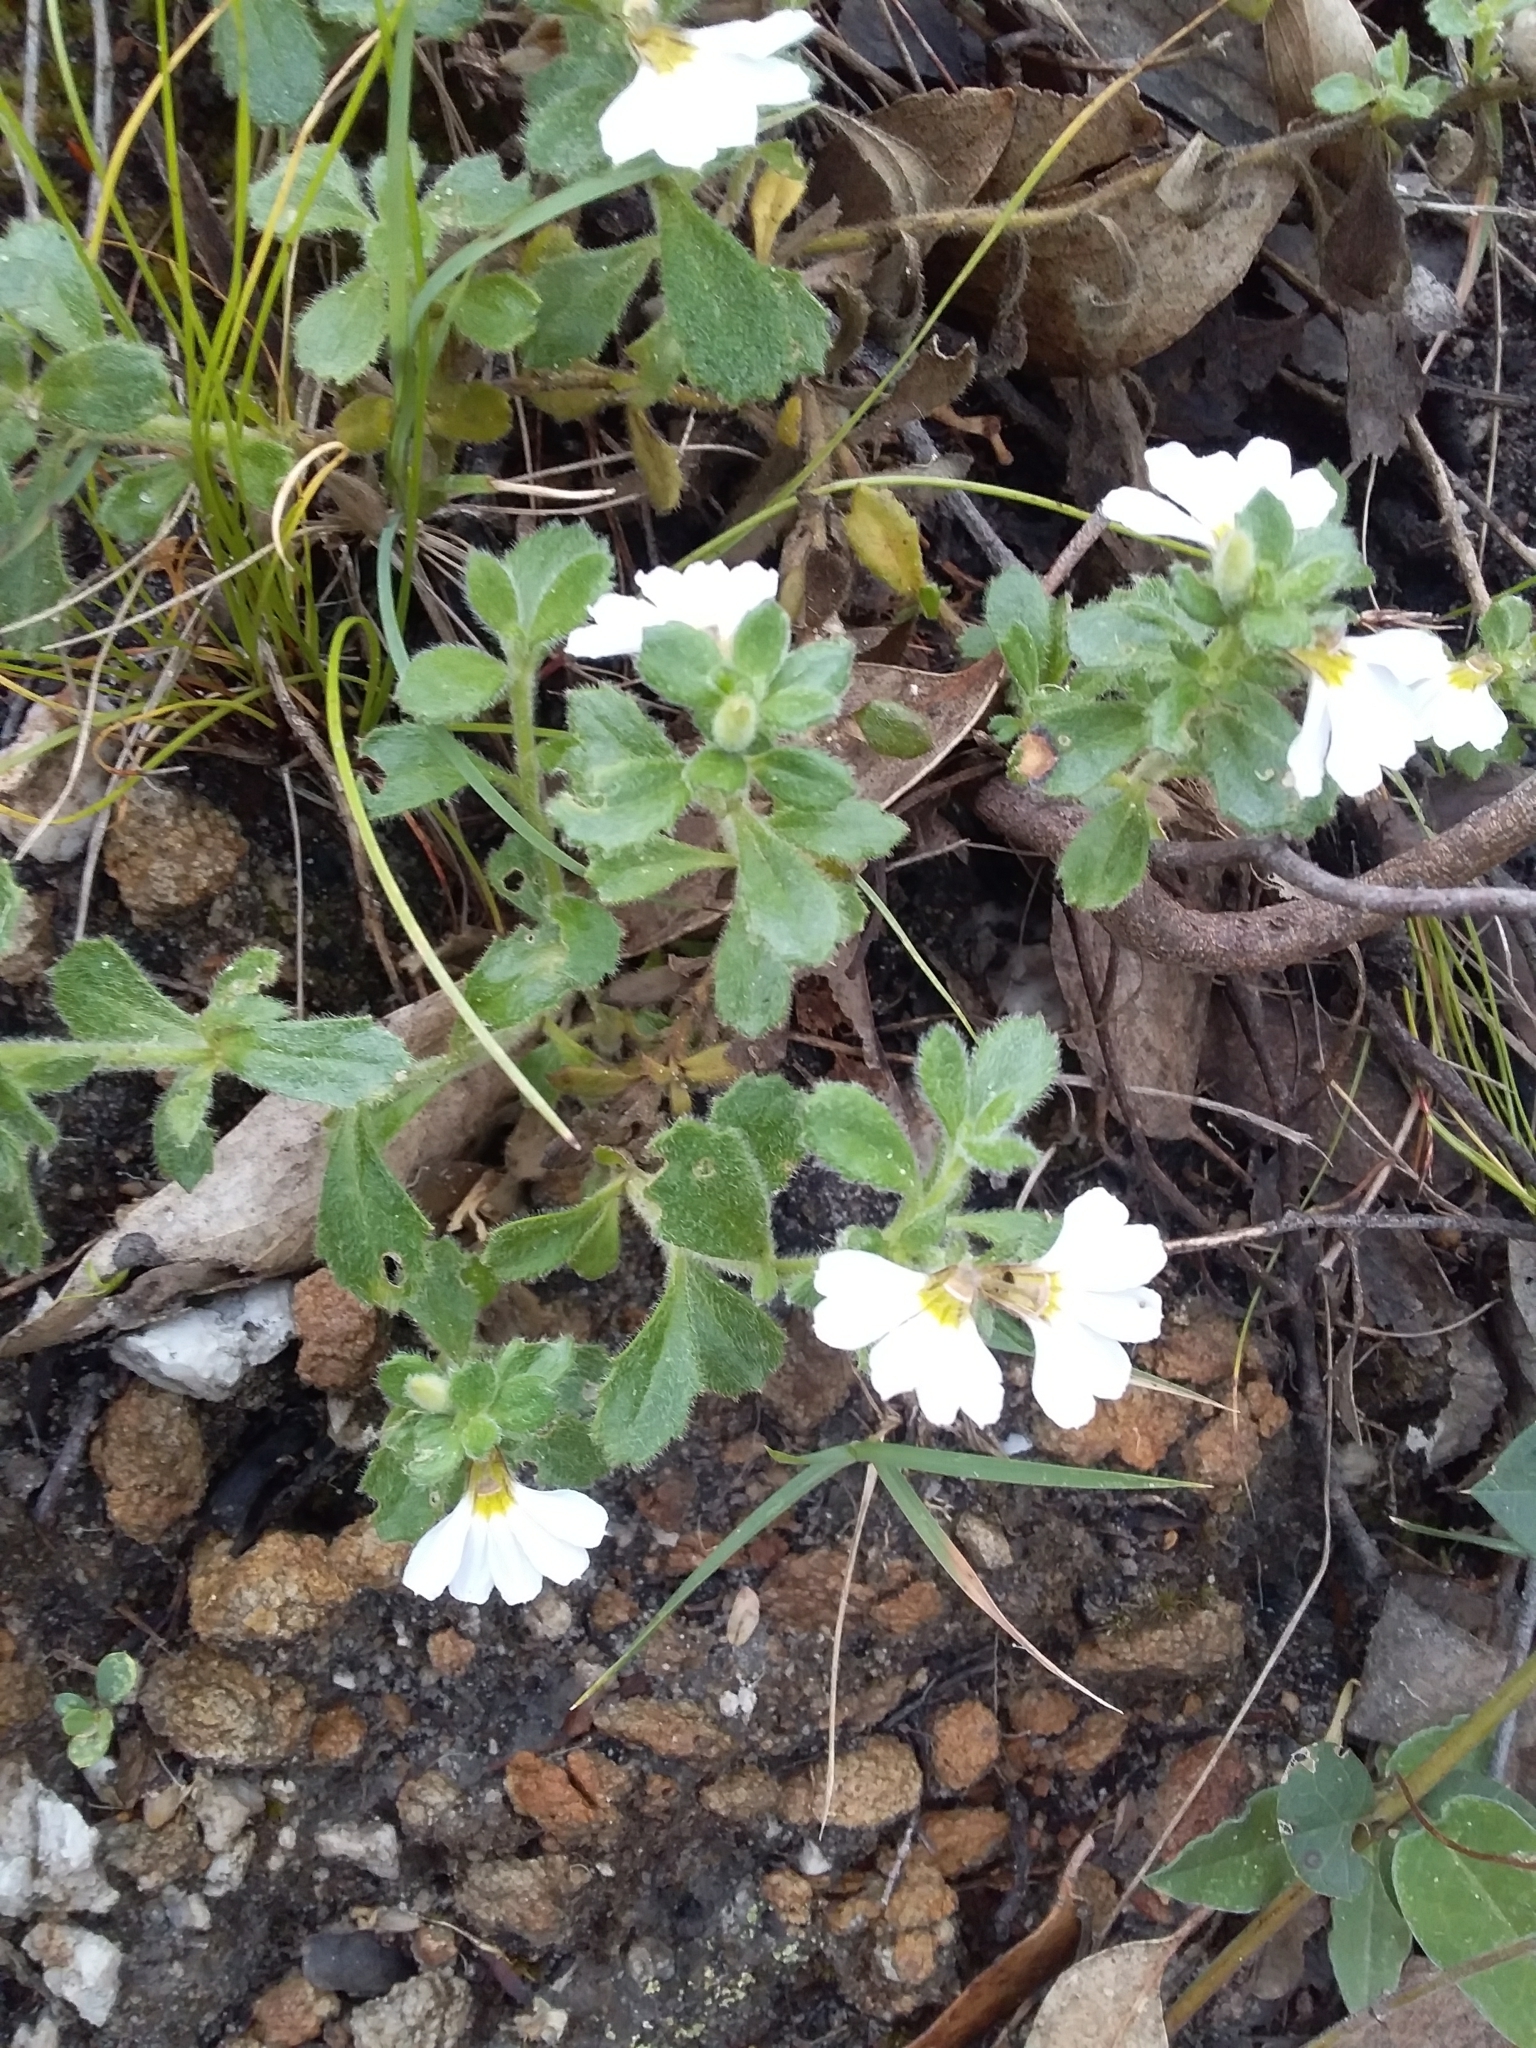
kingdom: Plantae
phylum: Tracheophyta
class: Magnoliopsida
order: Asterales
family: Goodeniaceae
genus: Scaevola
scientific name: Scaevola albida
